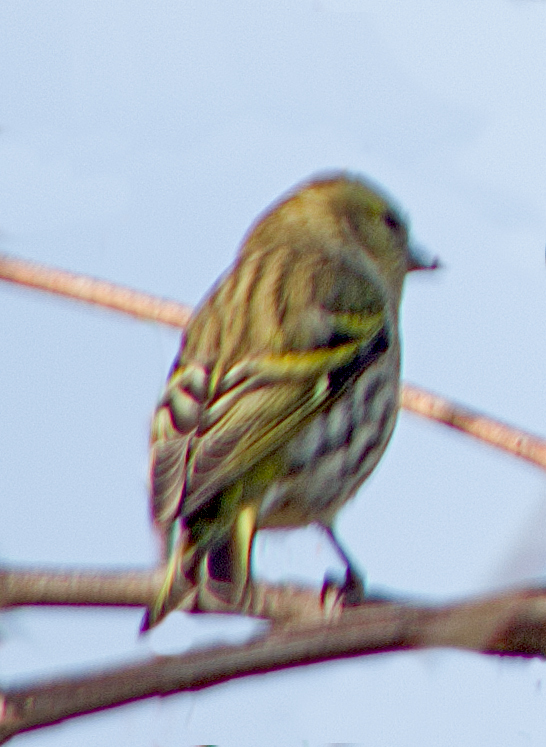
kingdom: Animalia
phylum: Chordata
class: Aves
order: Passeriformes
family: Fringillidae
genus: Spinus
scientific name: Spinus spinus
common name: Eurasian siskin
